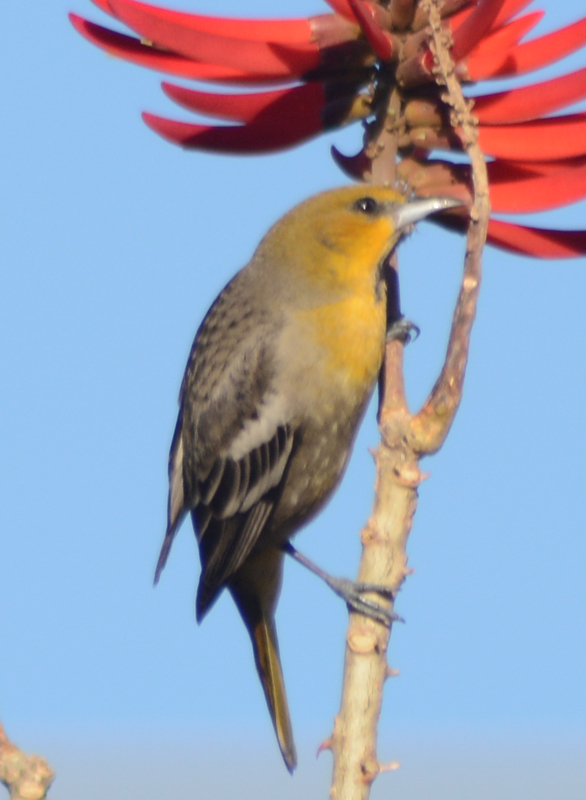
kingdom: Animalia
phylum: Chordata
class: Aves
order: Passeriformes
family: Icteridae
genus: Icterus
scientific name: Icterus abeillei
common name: Black-backed oriole
